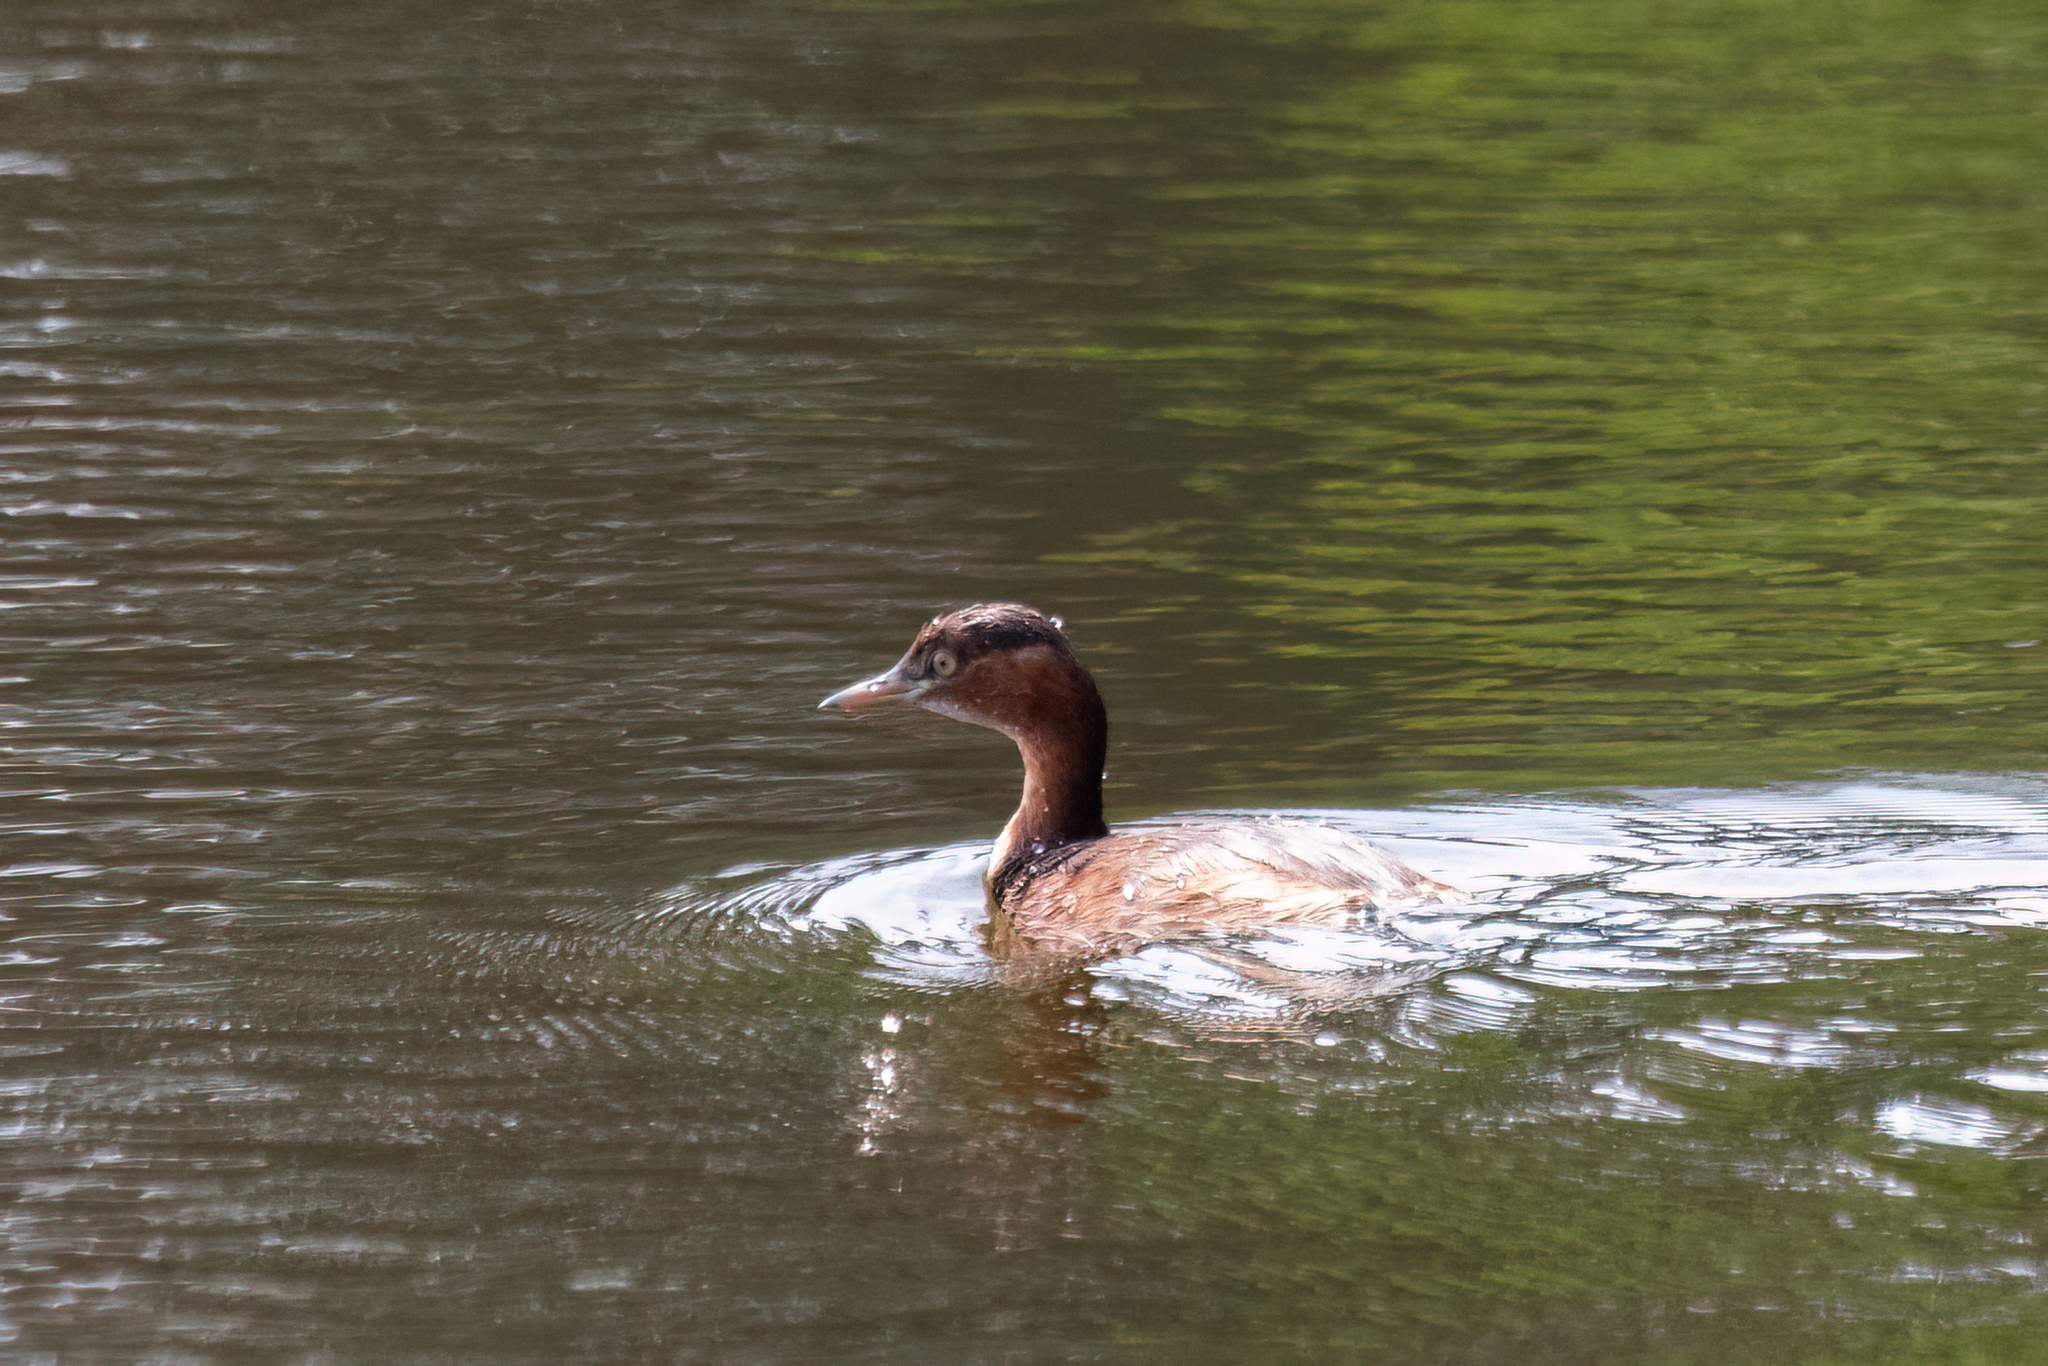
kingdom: Animalia
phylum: Chordata
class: Aves
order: Podicipediformes
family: Podicipedidae
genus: Tachybaptus
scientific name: Tachybaptus ruficollis
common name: Little grebe
